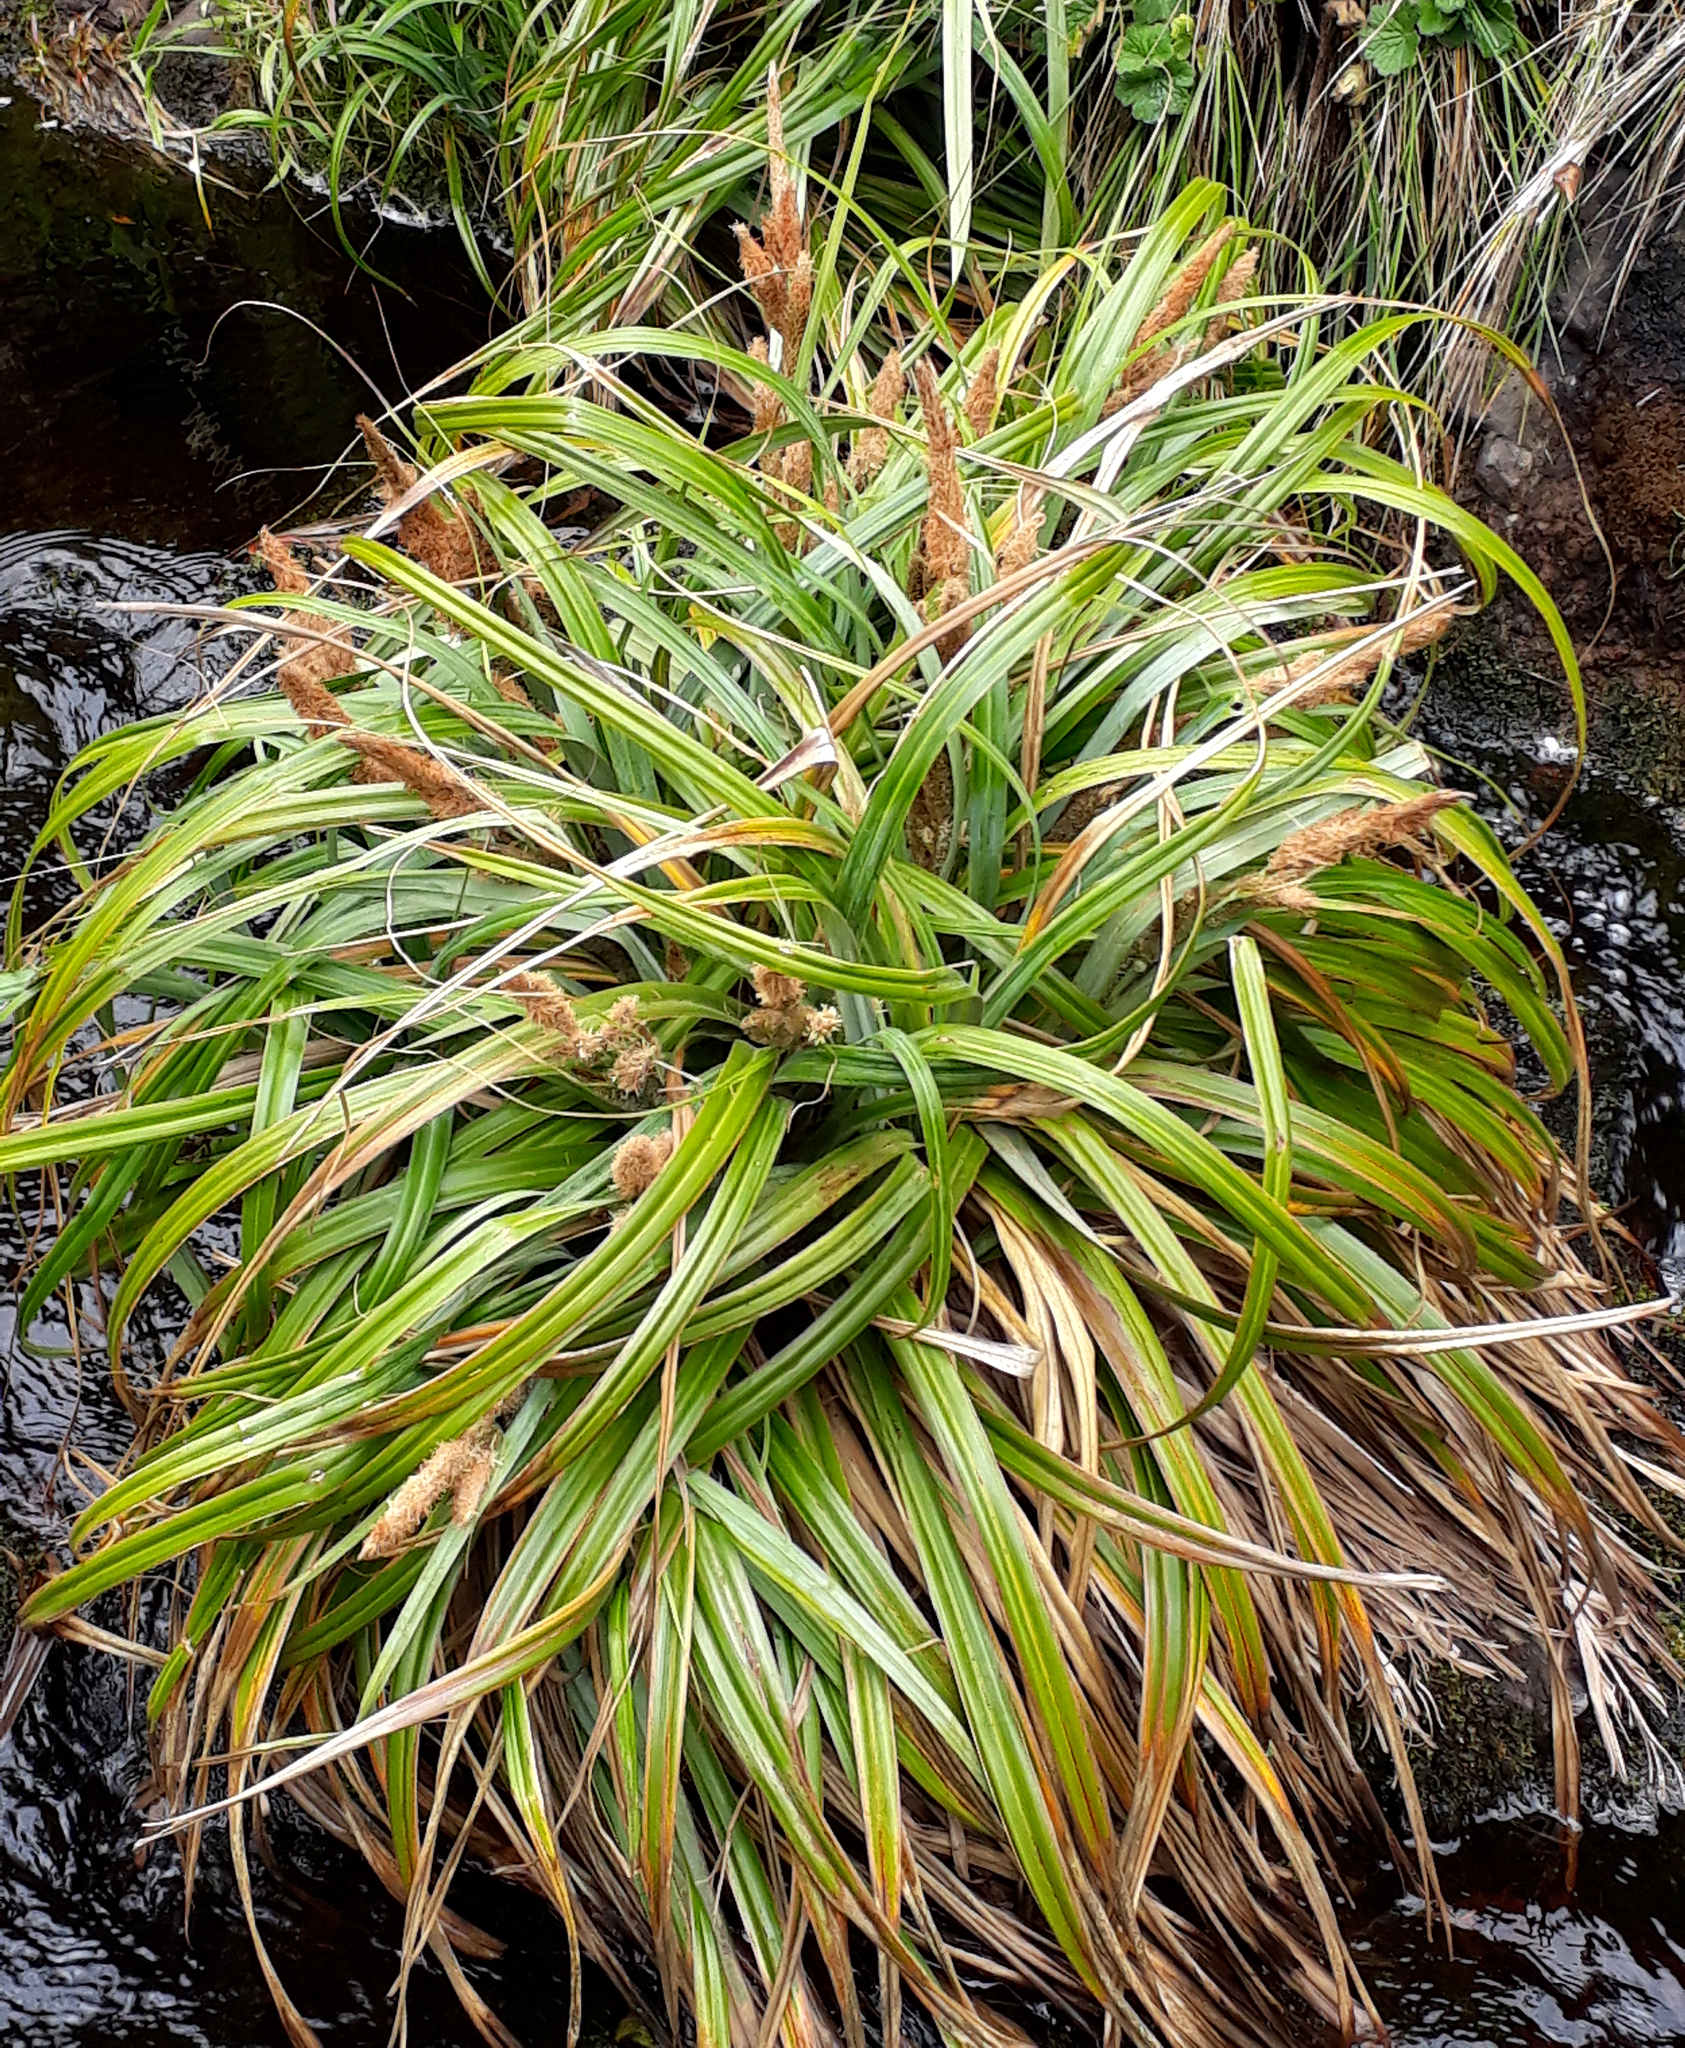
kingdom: Plantae
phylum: Tracheophyta
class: Liliopsida
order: Poales
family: Cyperaceae
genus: Carex
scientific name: Carex trifida
